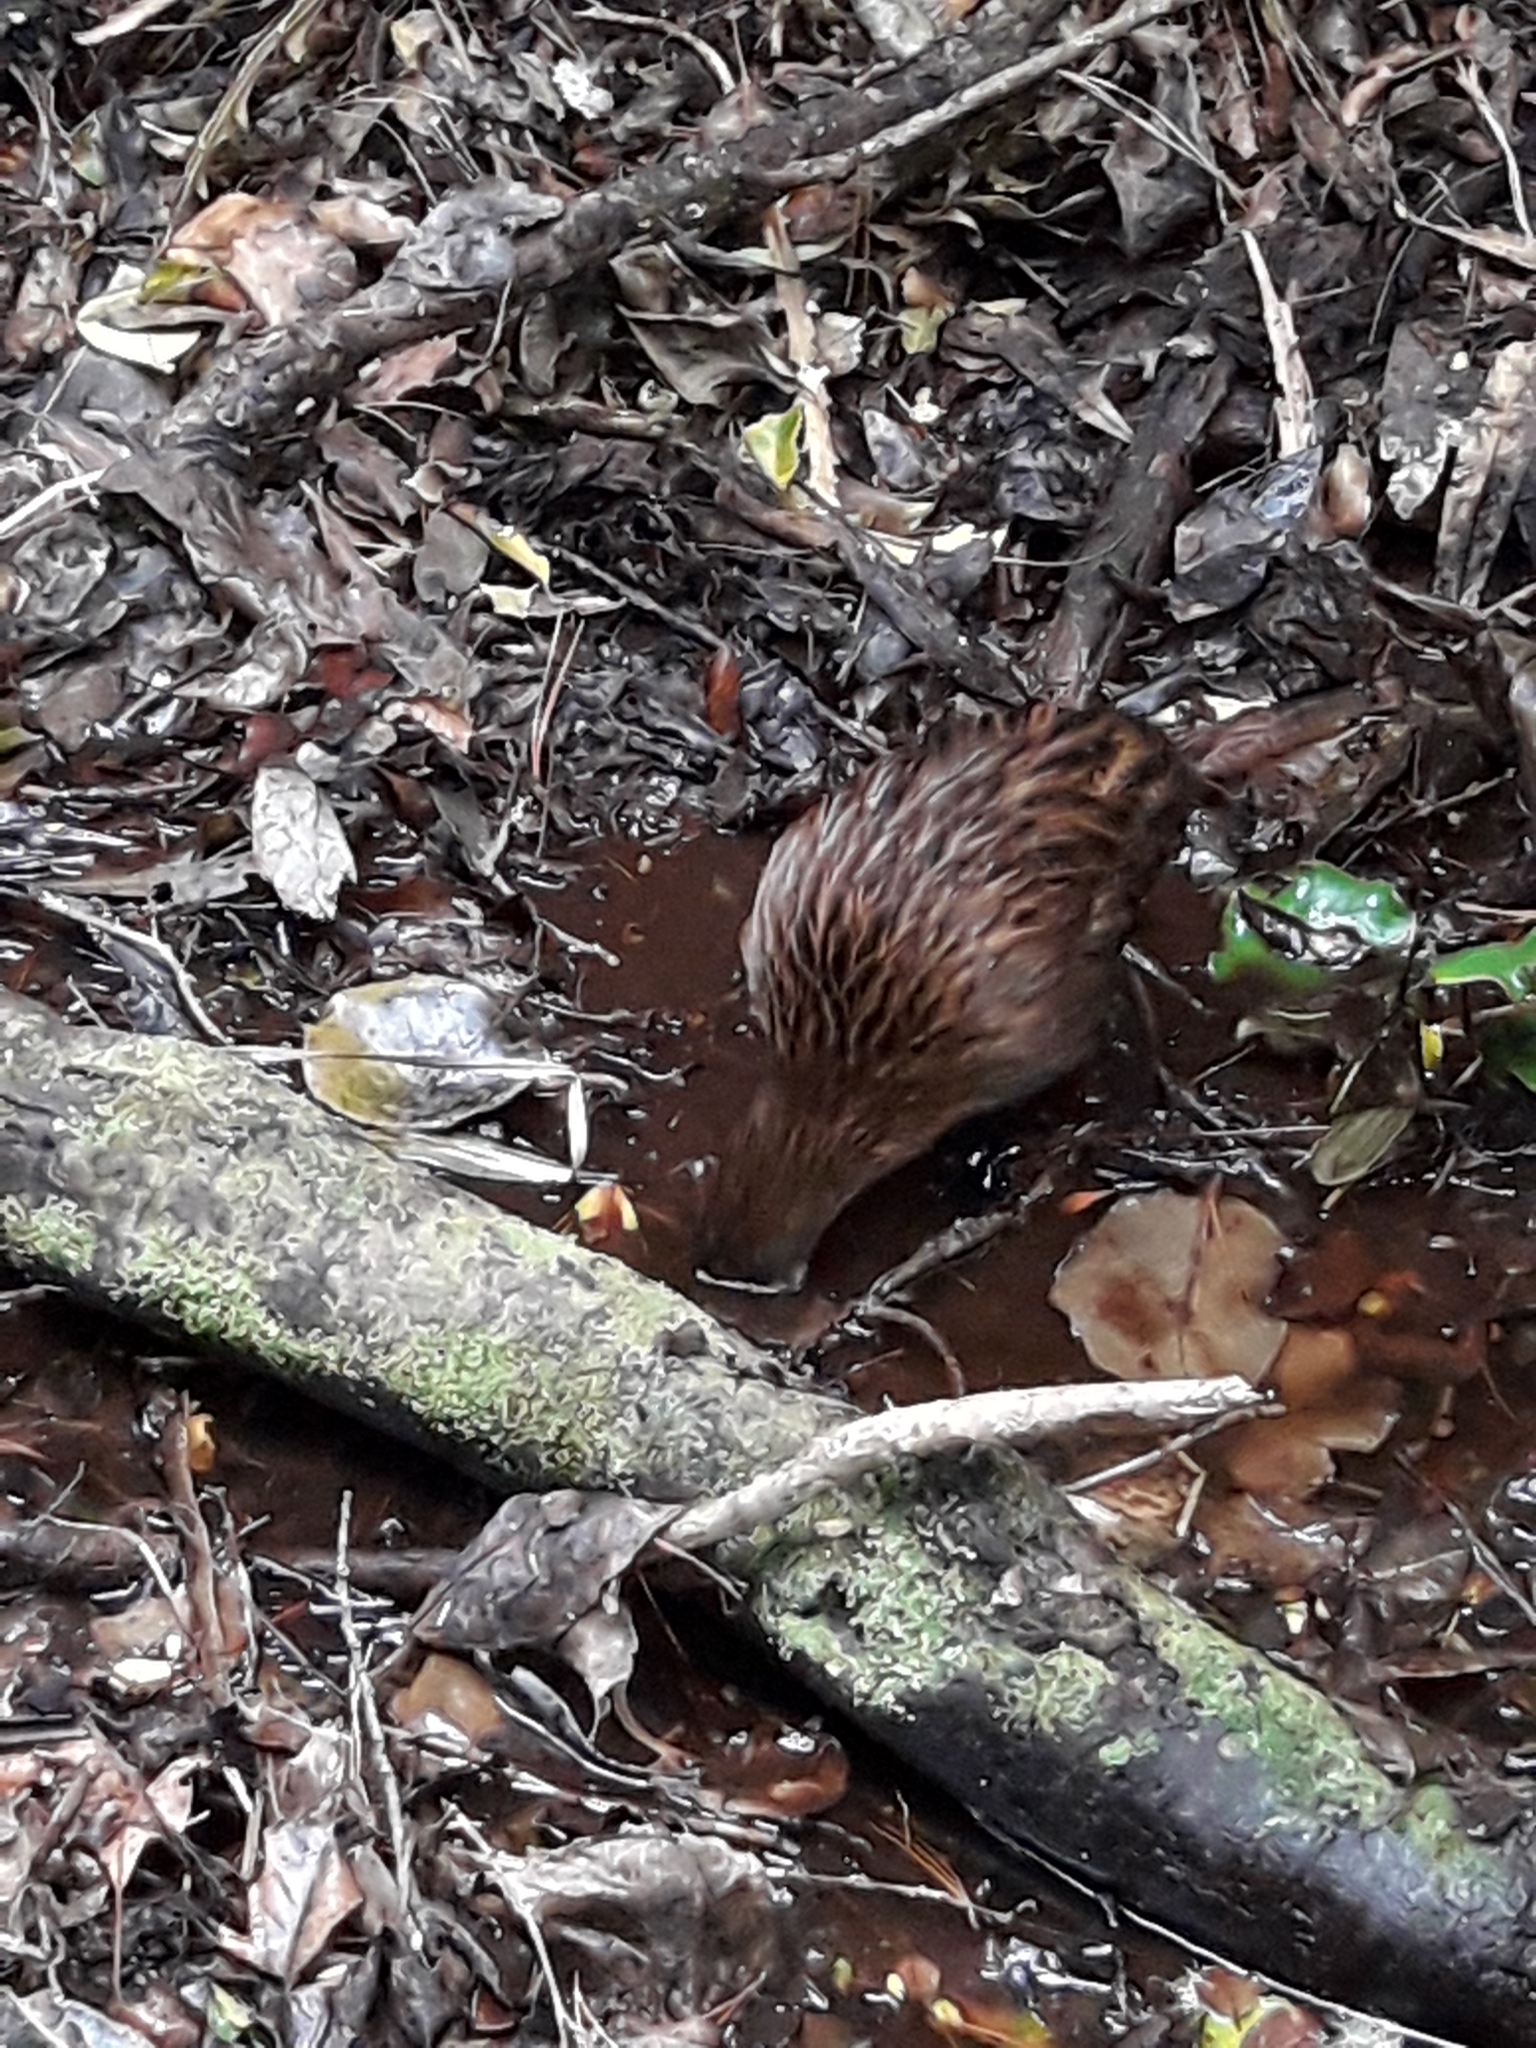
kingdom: Animalia
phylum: Chordata
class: Aves
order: Gruiformes
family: Rallidae
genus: Gallirallus
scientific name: Gallirallus australis
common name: Weka
